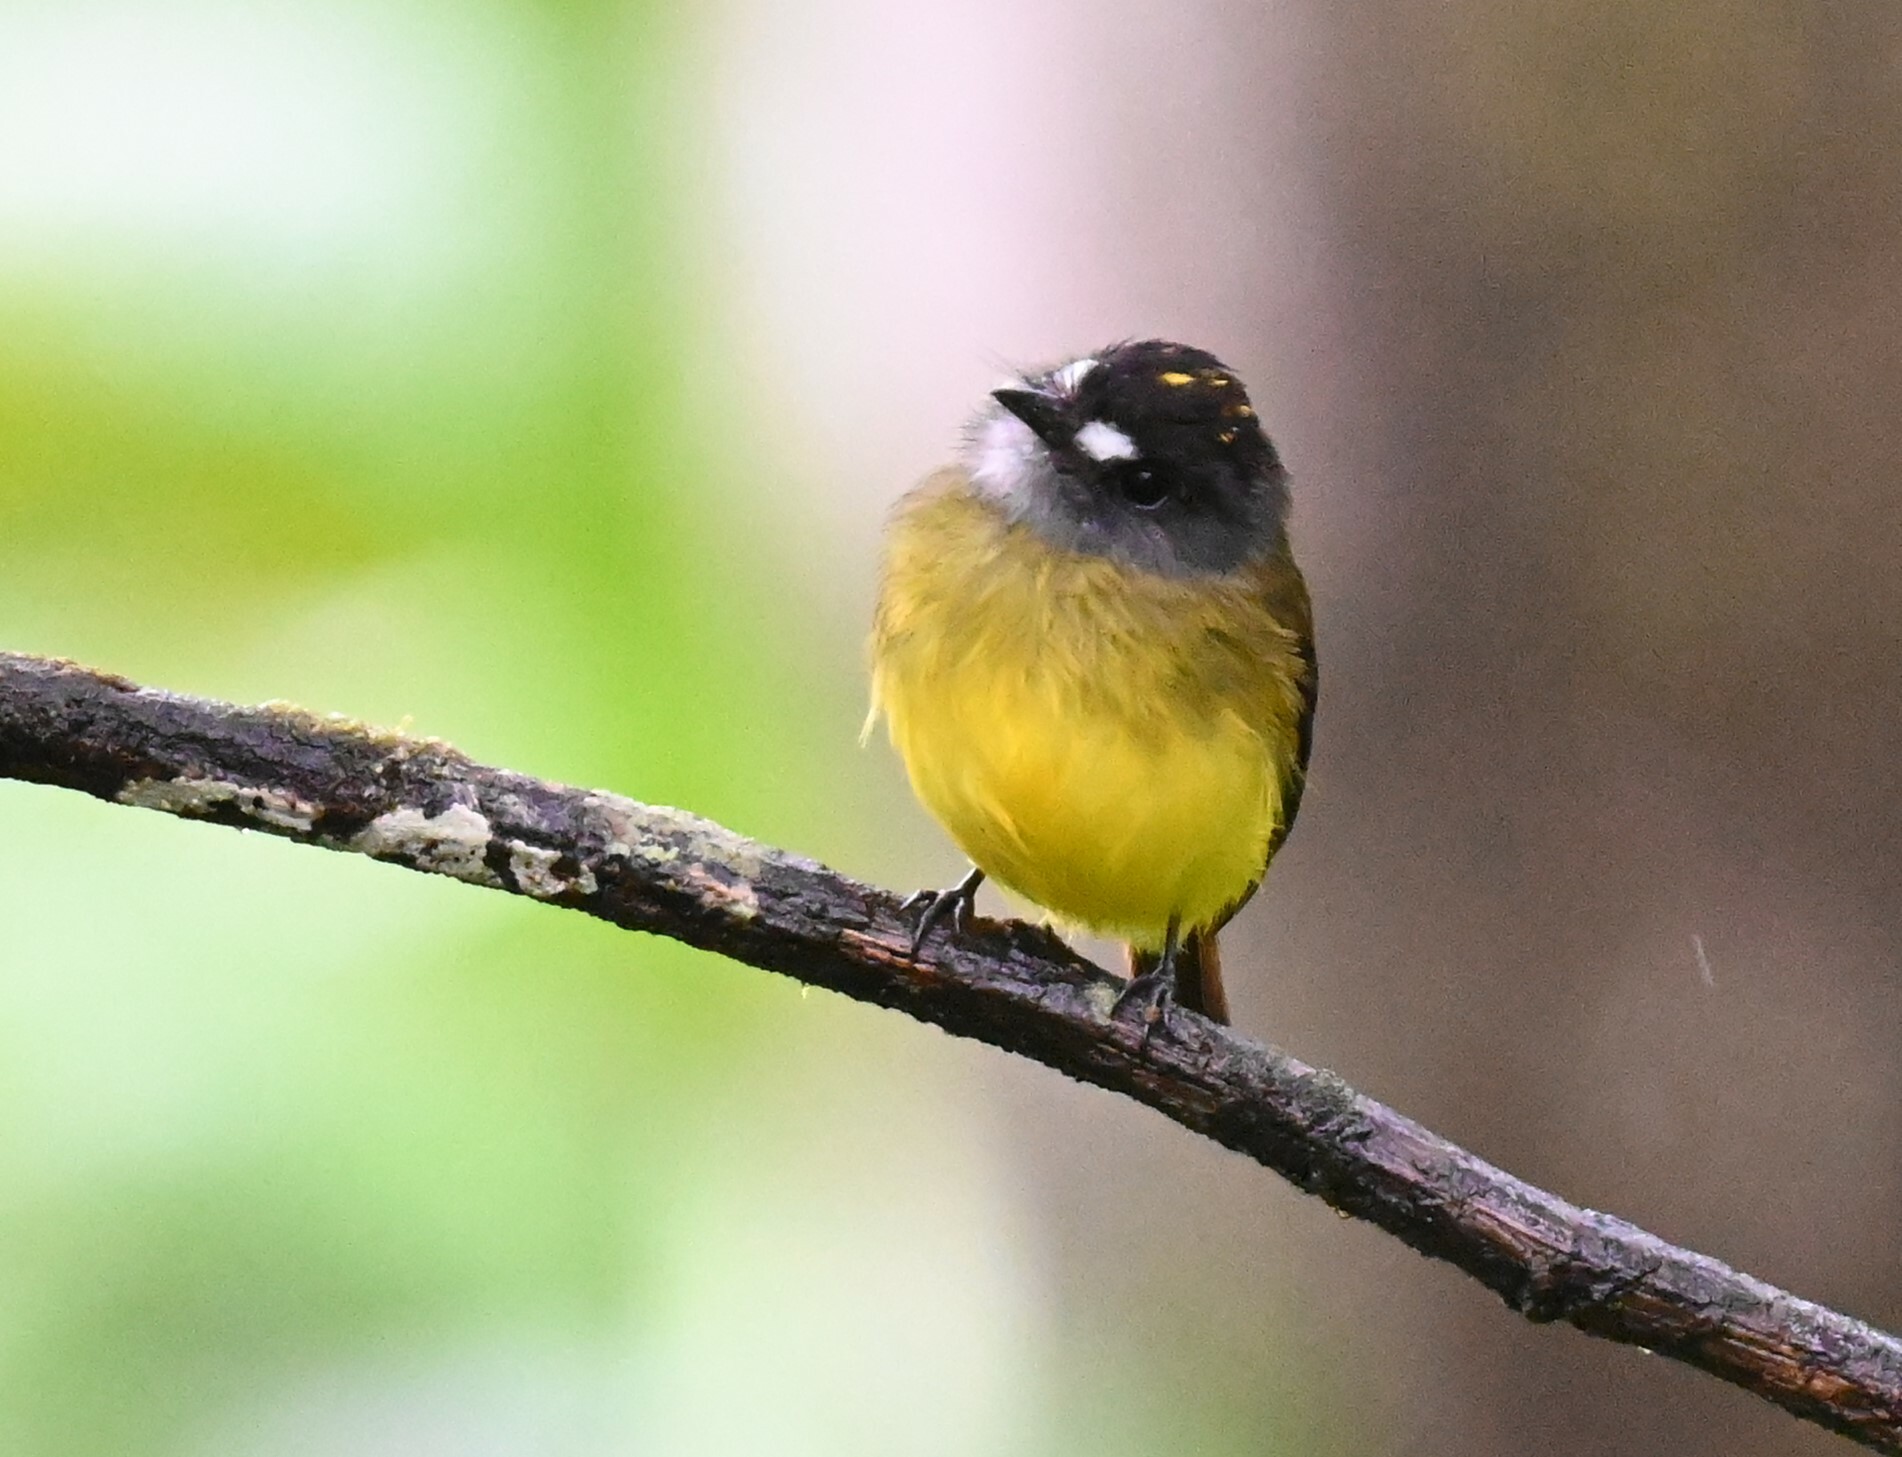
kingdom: Animalia
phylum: Chordata
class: Aves
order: Passeriformes
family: Tyrannidae
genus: Myiotriccus
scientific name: Myiotriccus ornatus
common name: Ornate flycatcher
